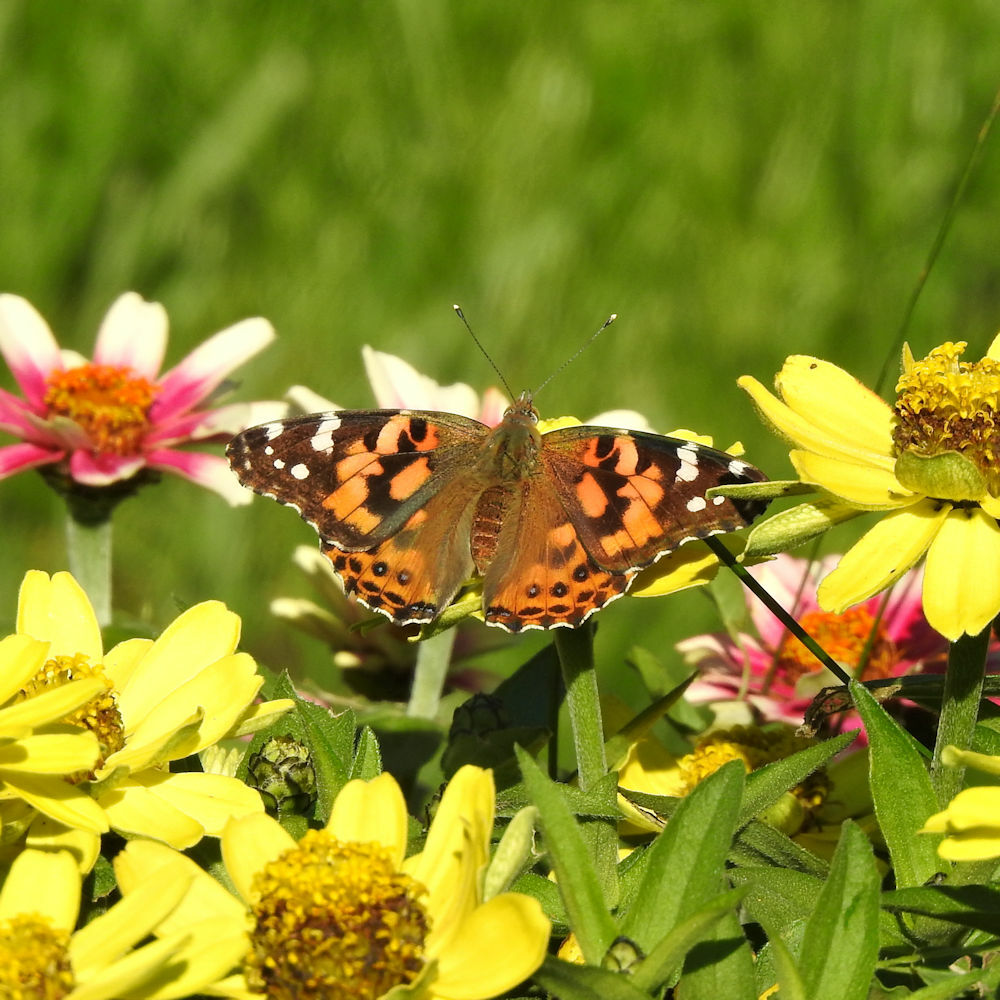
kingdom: Animalia
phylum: Arthropoda
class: Insecta
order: Lepidoptera
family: Nymphalidae
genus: Vanessa
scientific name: Vanessa cardui
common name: Painted lady
